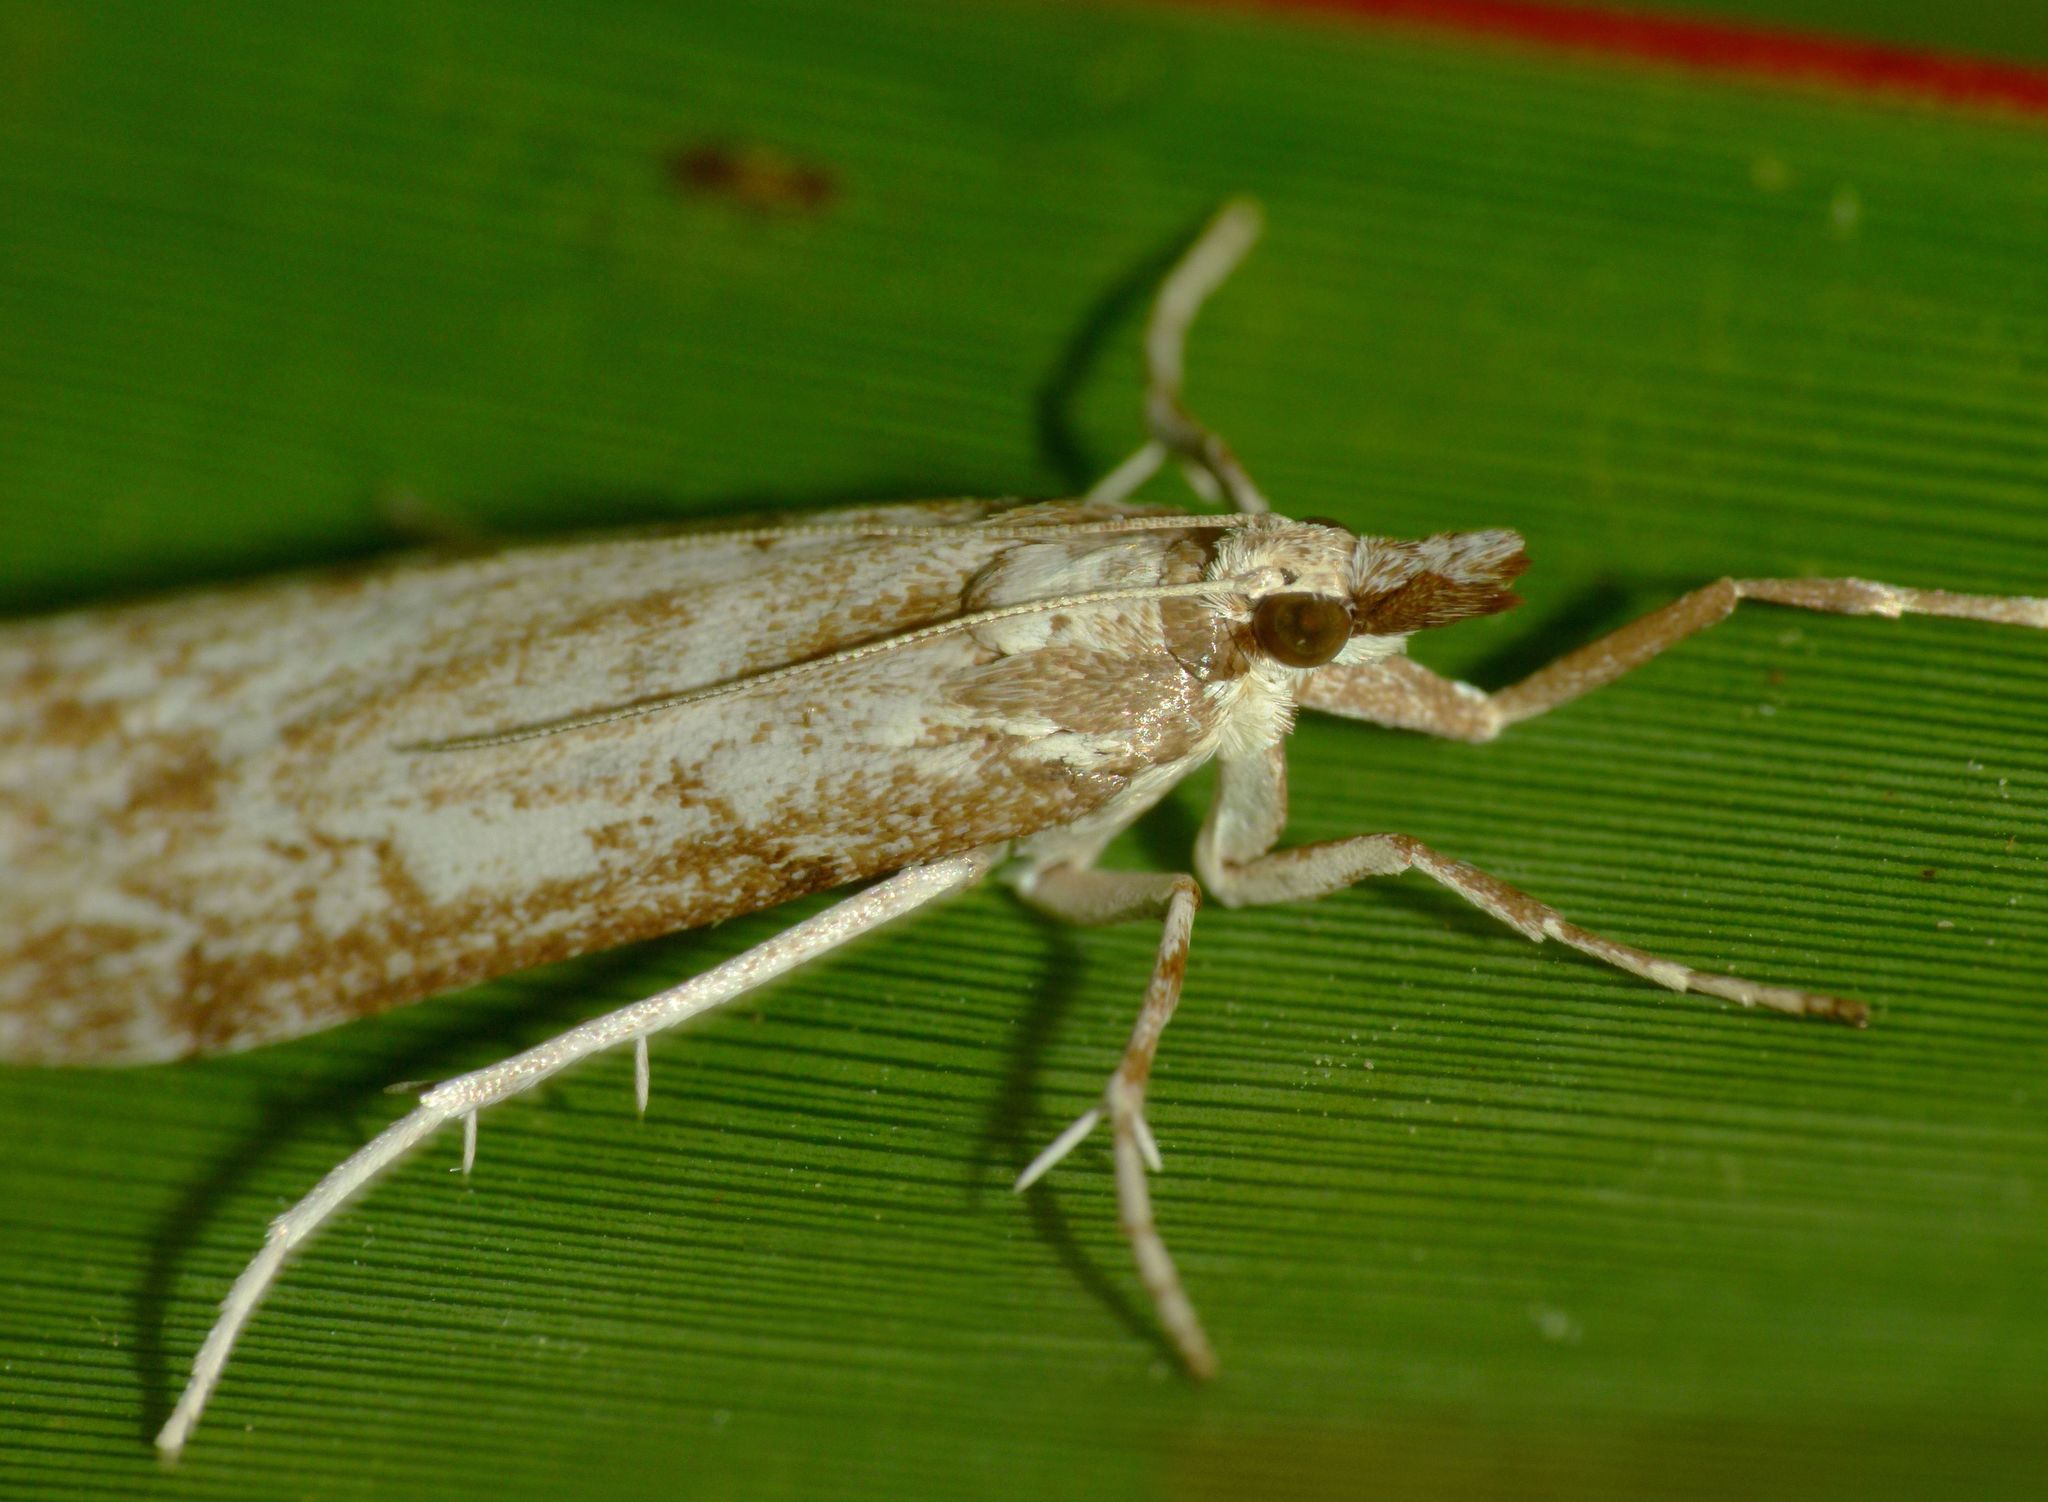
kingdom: Animalia
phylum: Arthropoda
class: Insecta
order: Lepidoptera
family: Crambidae
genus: Scoparia
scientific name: Scoparia augastis
